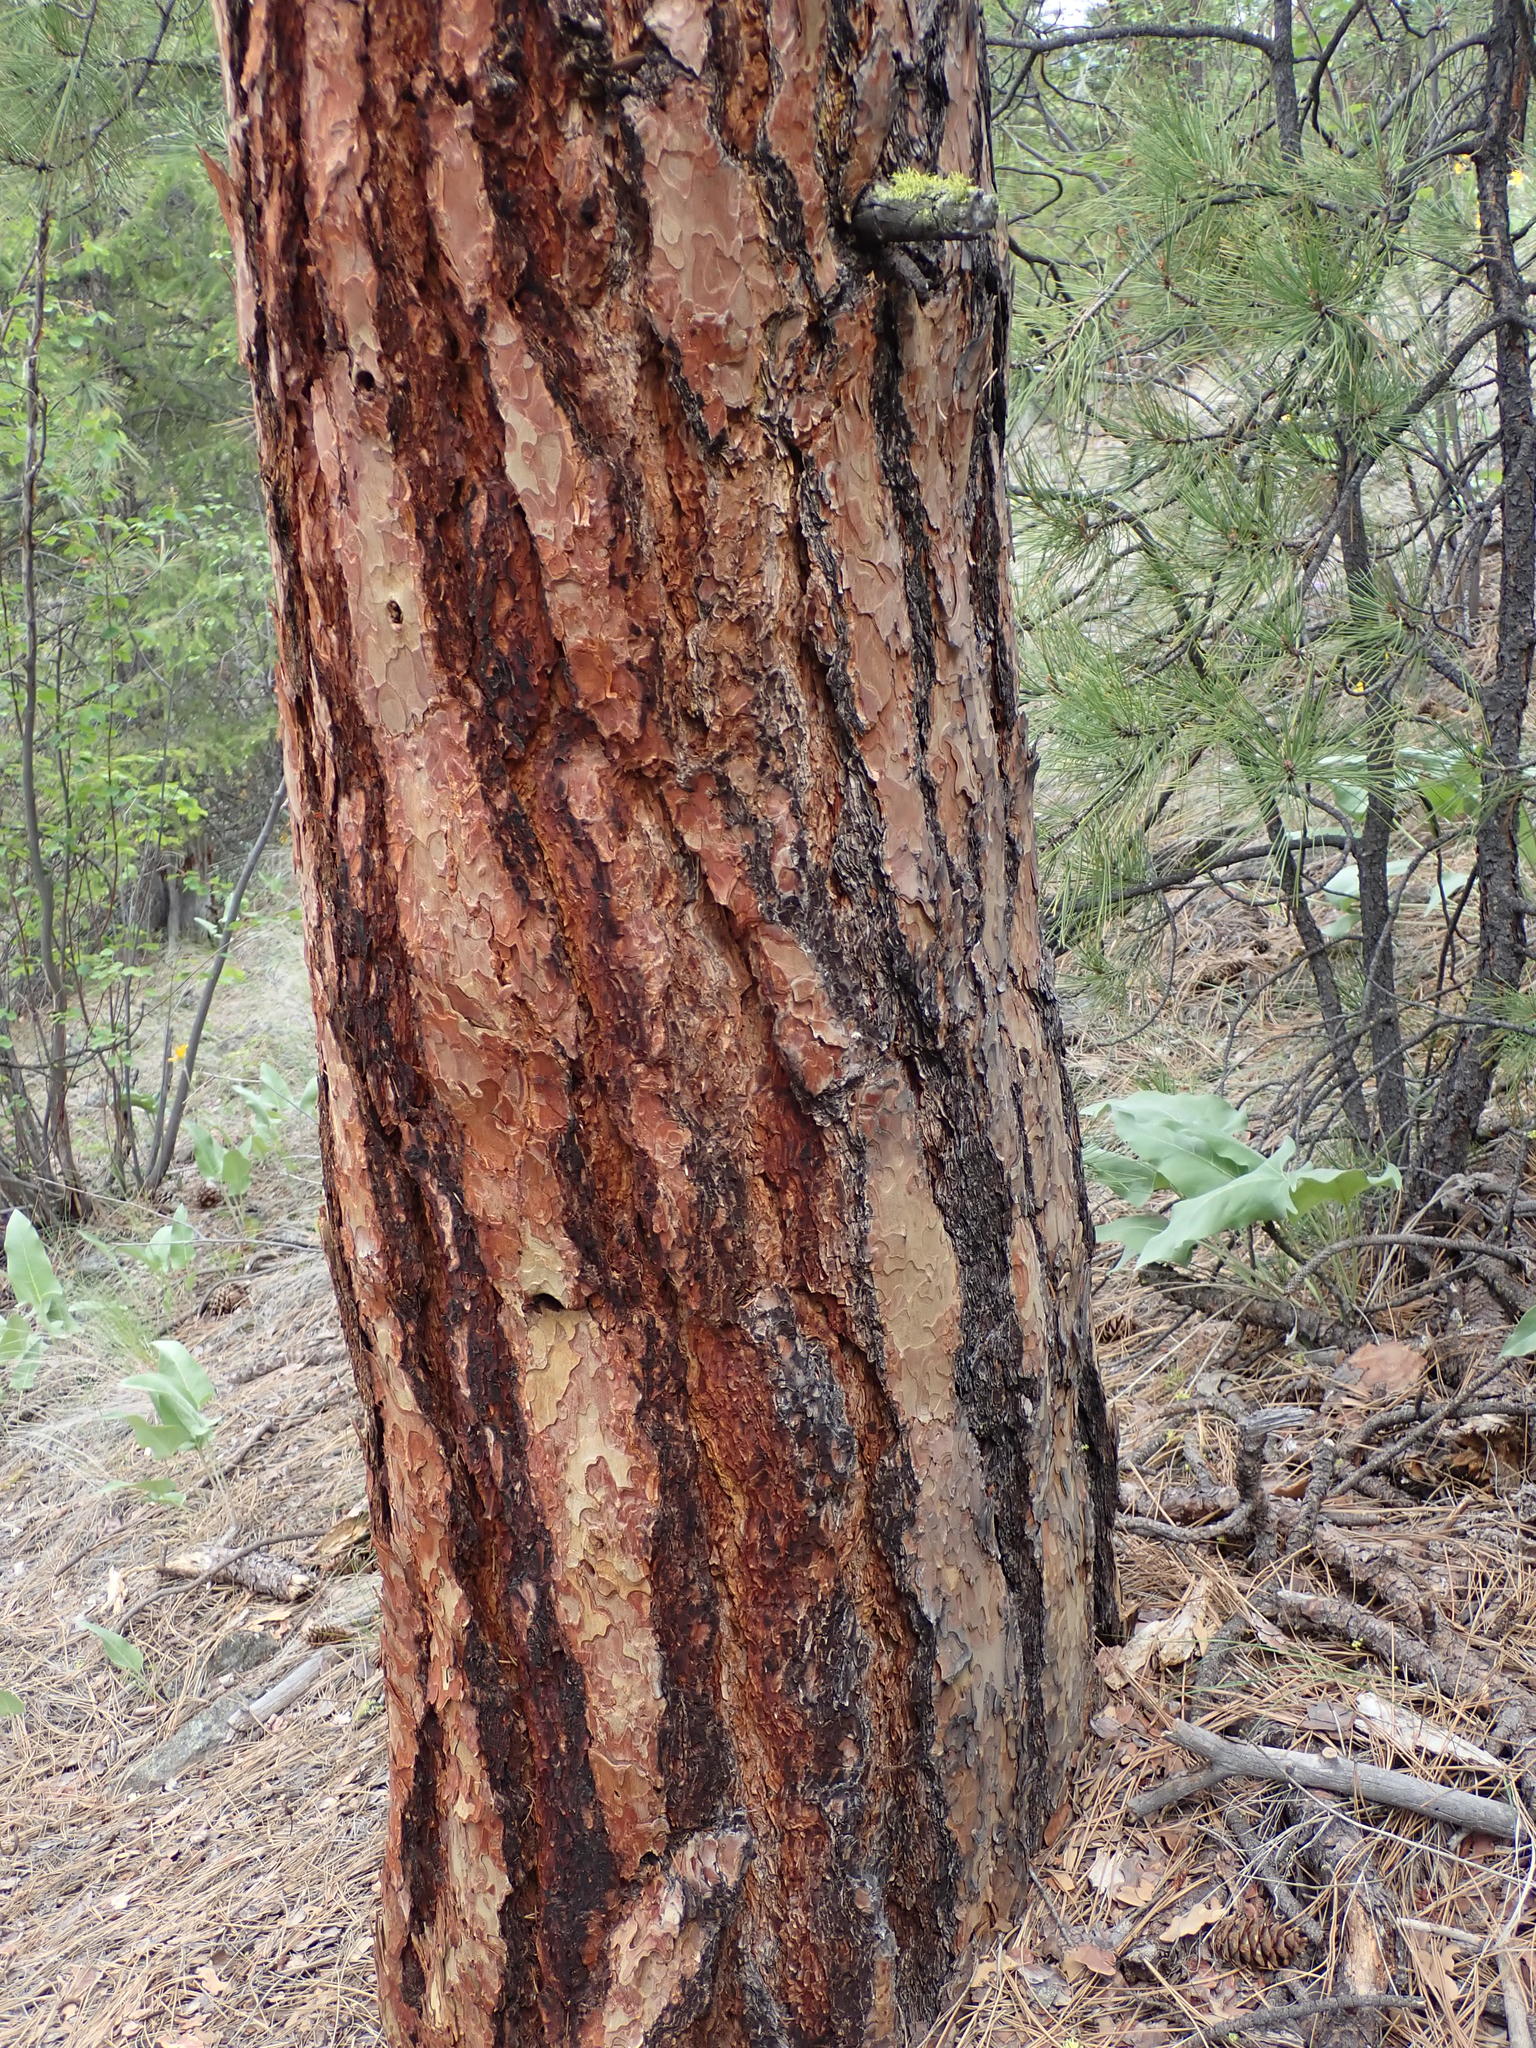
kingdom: Plantae
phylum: Tracheophyta
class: Pinopsida
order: Pinales
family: Pinaceae
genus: Pinus
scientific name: Pinus ponderosa
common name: Western yellow-pine
